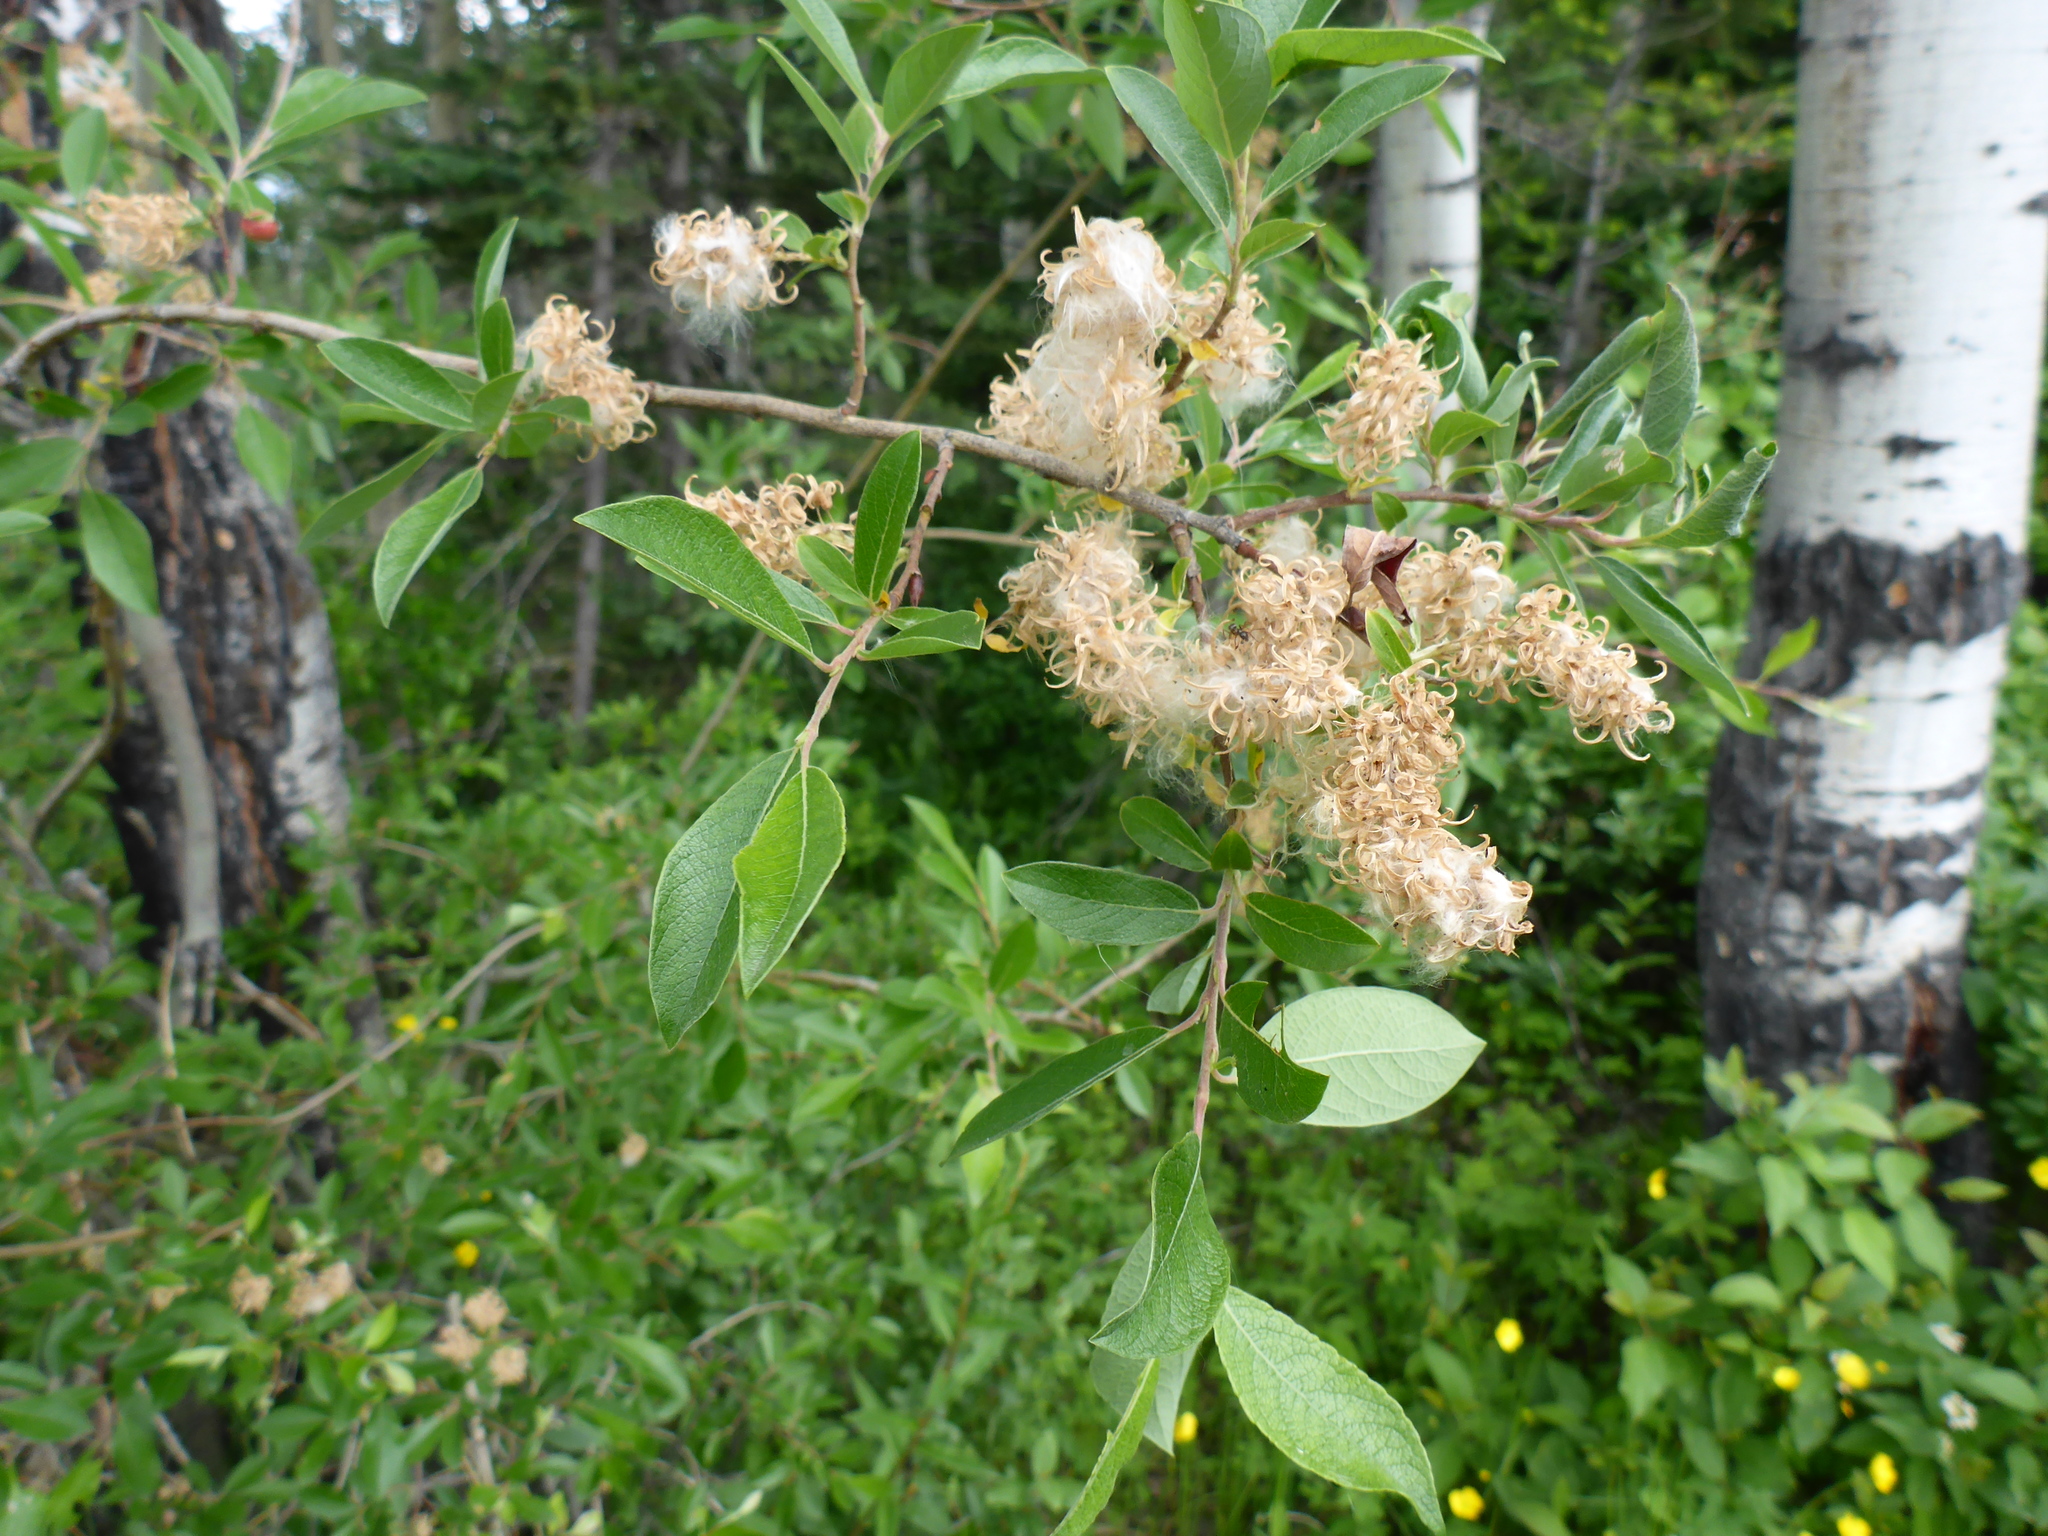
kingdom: Plantae
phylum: Tracheophyta
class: Magnoliopsida
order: Malpighiales
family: Salicaceae
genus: Salix
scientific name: Salix bebbiana
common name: Bebb's willow
